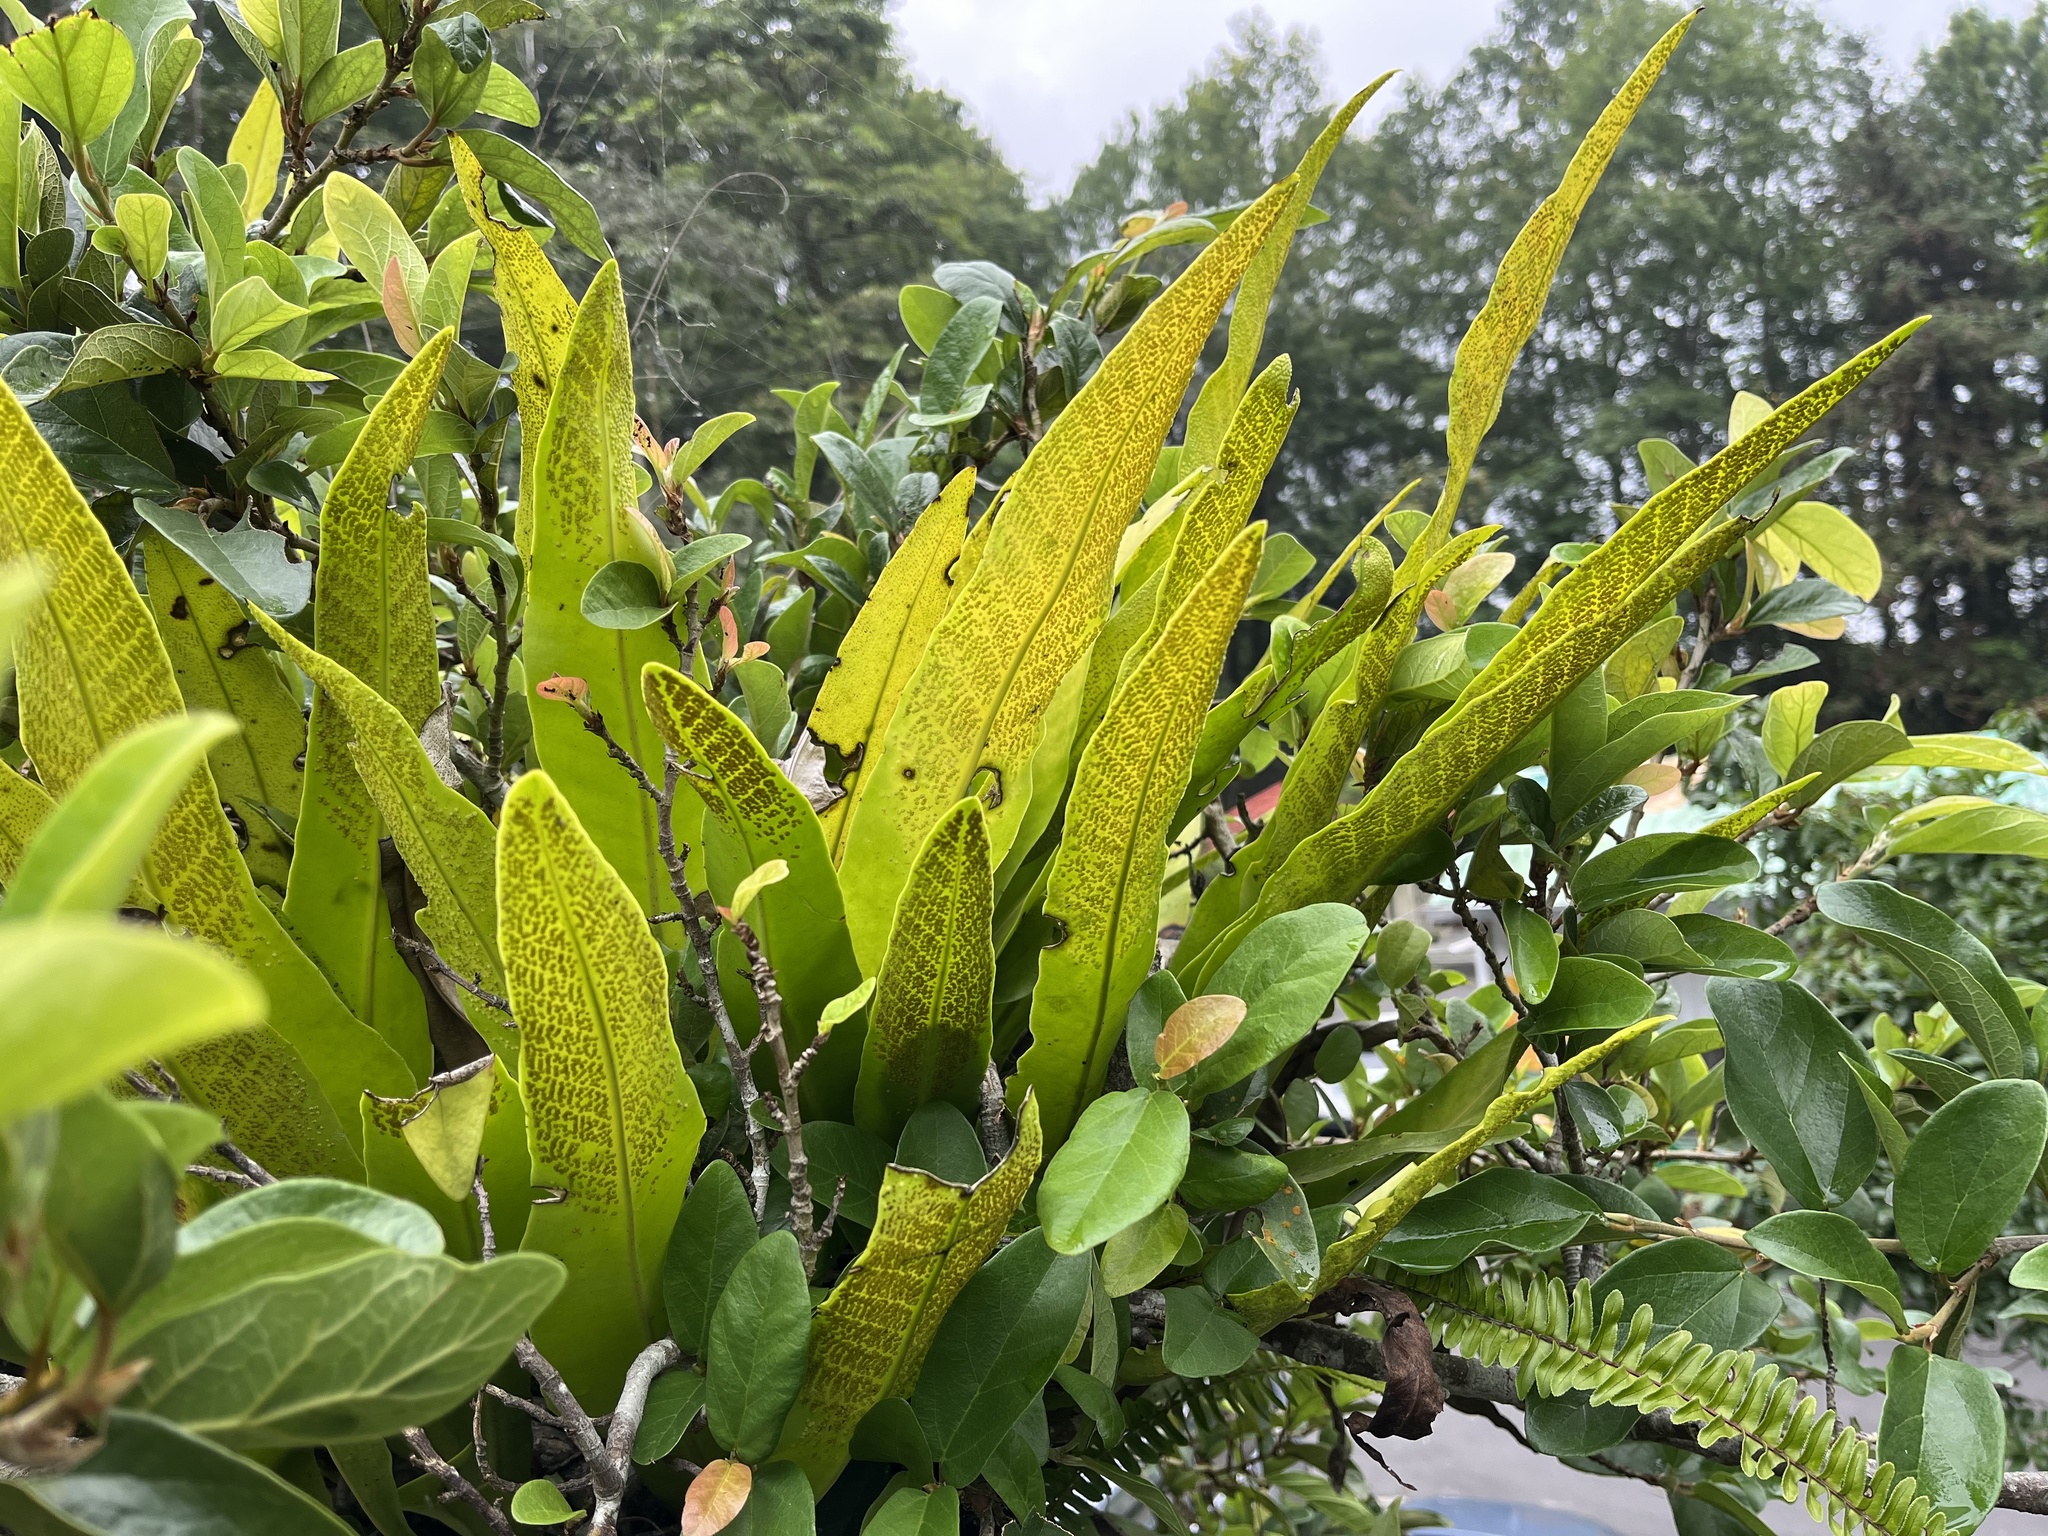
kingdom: Plantae
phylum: Tracheophyta
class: Polypodiopsida
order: Polypodiales
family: Polypodiaceae
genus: Microsorum
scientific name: Microsorum punctatum
